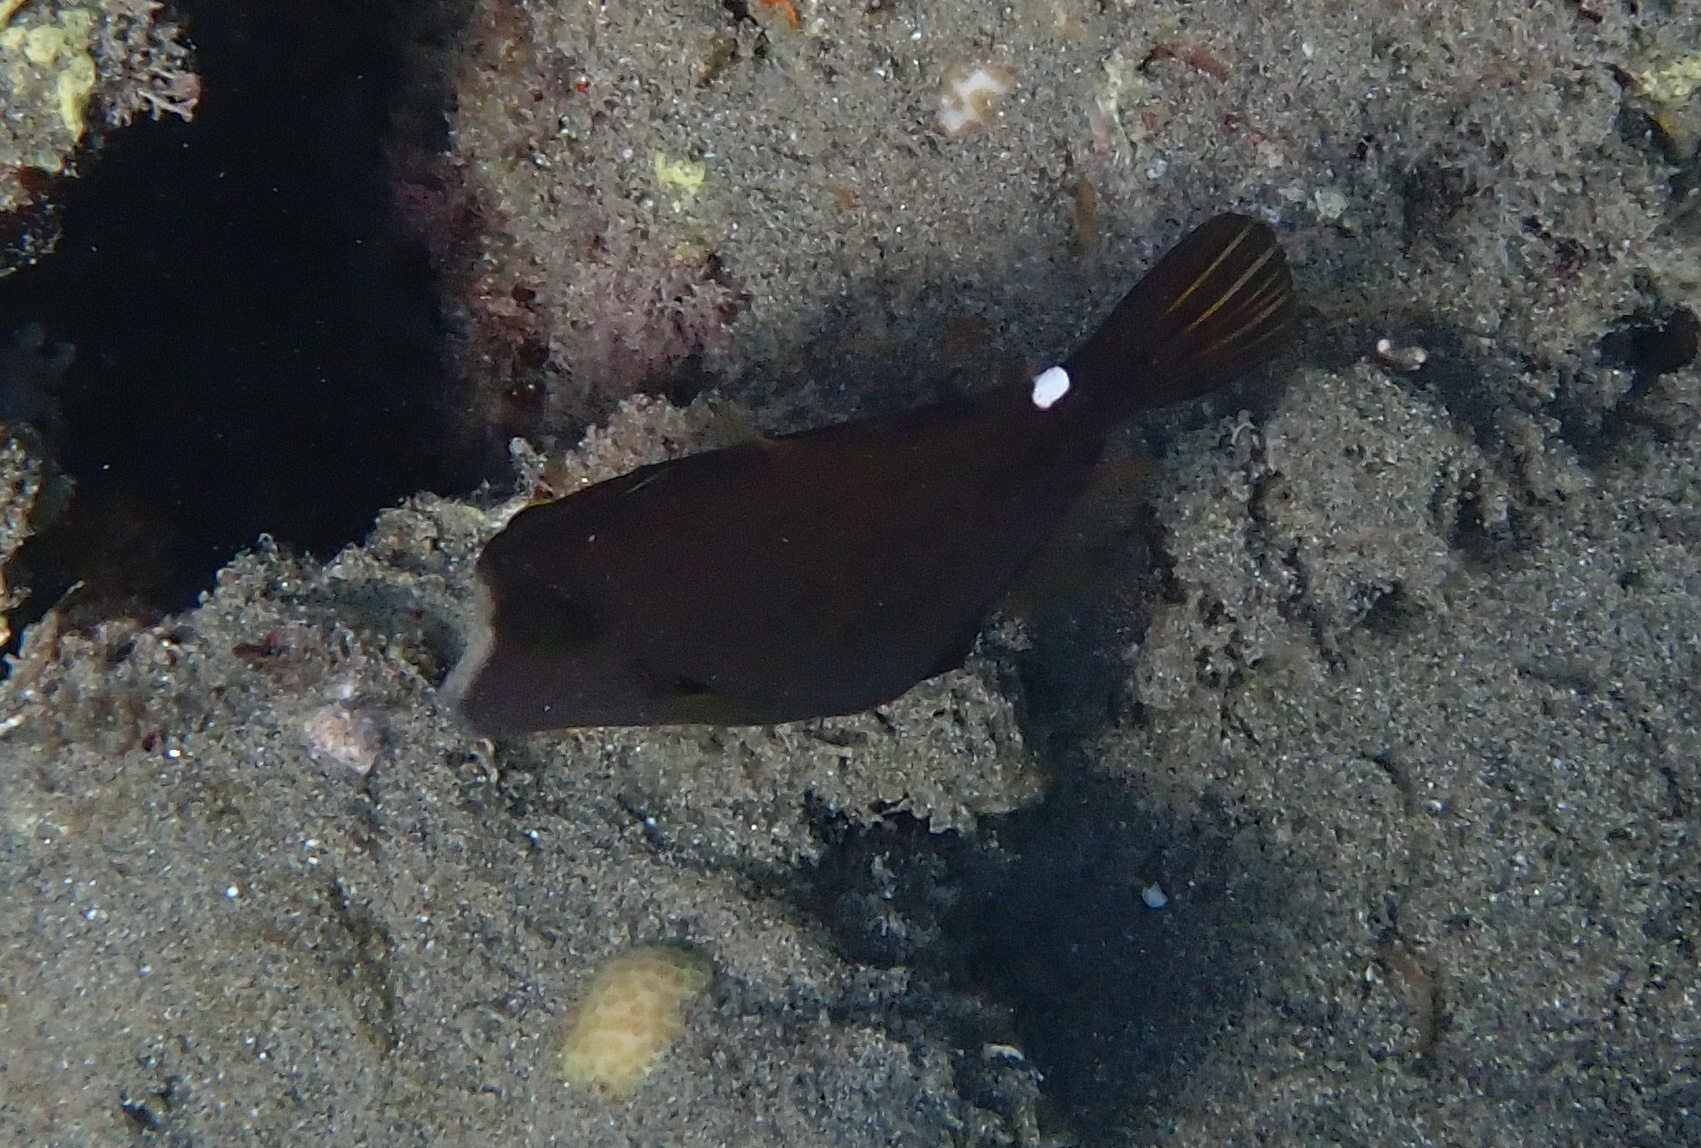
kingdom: Animalia
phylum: Chordata
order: Tetraodontiformes
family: Monacanthidae
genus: Cantherhines
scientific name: Cantherhines pardalis
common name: Honeycomb filefish
